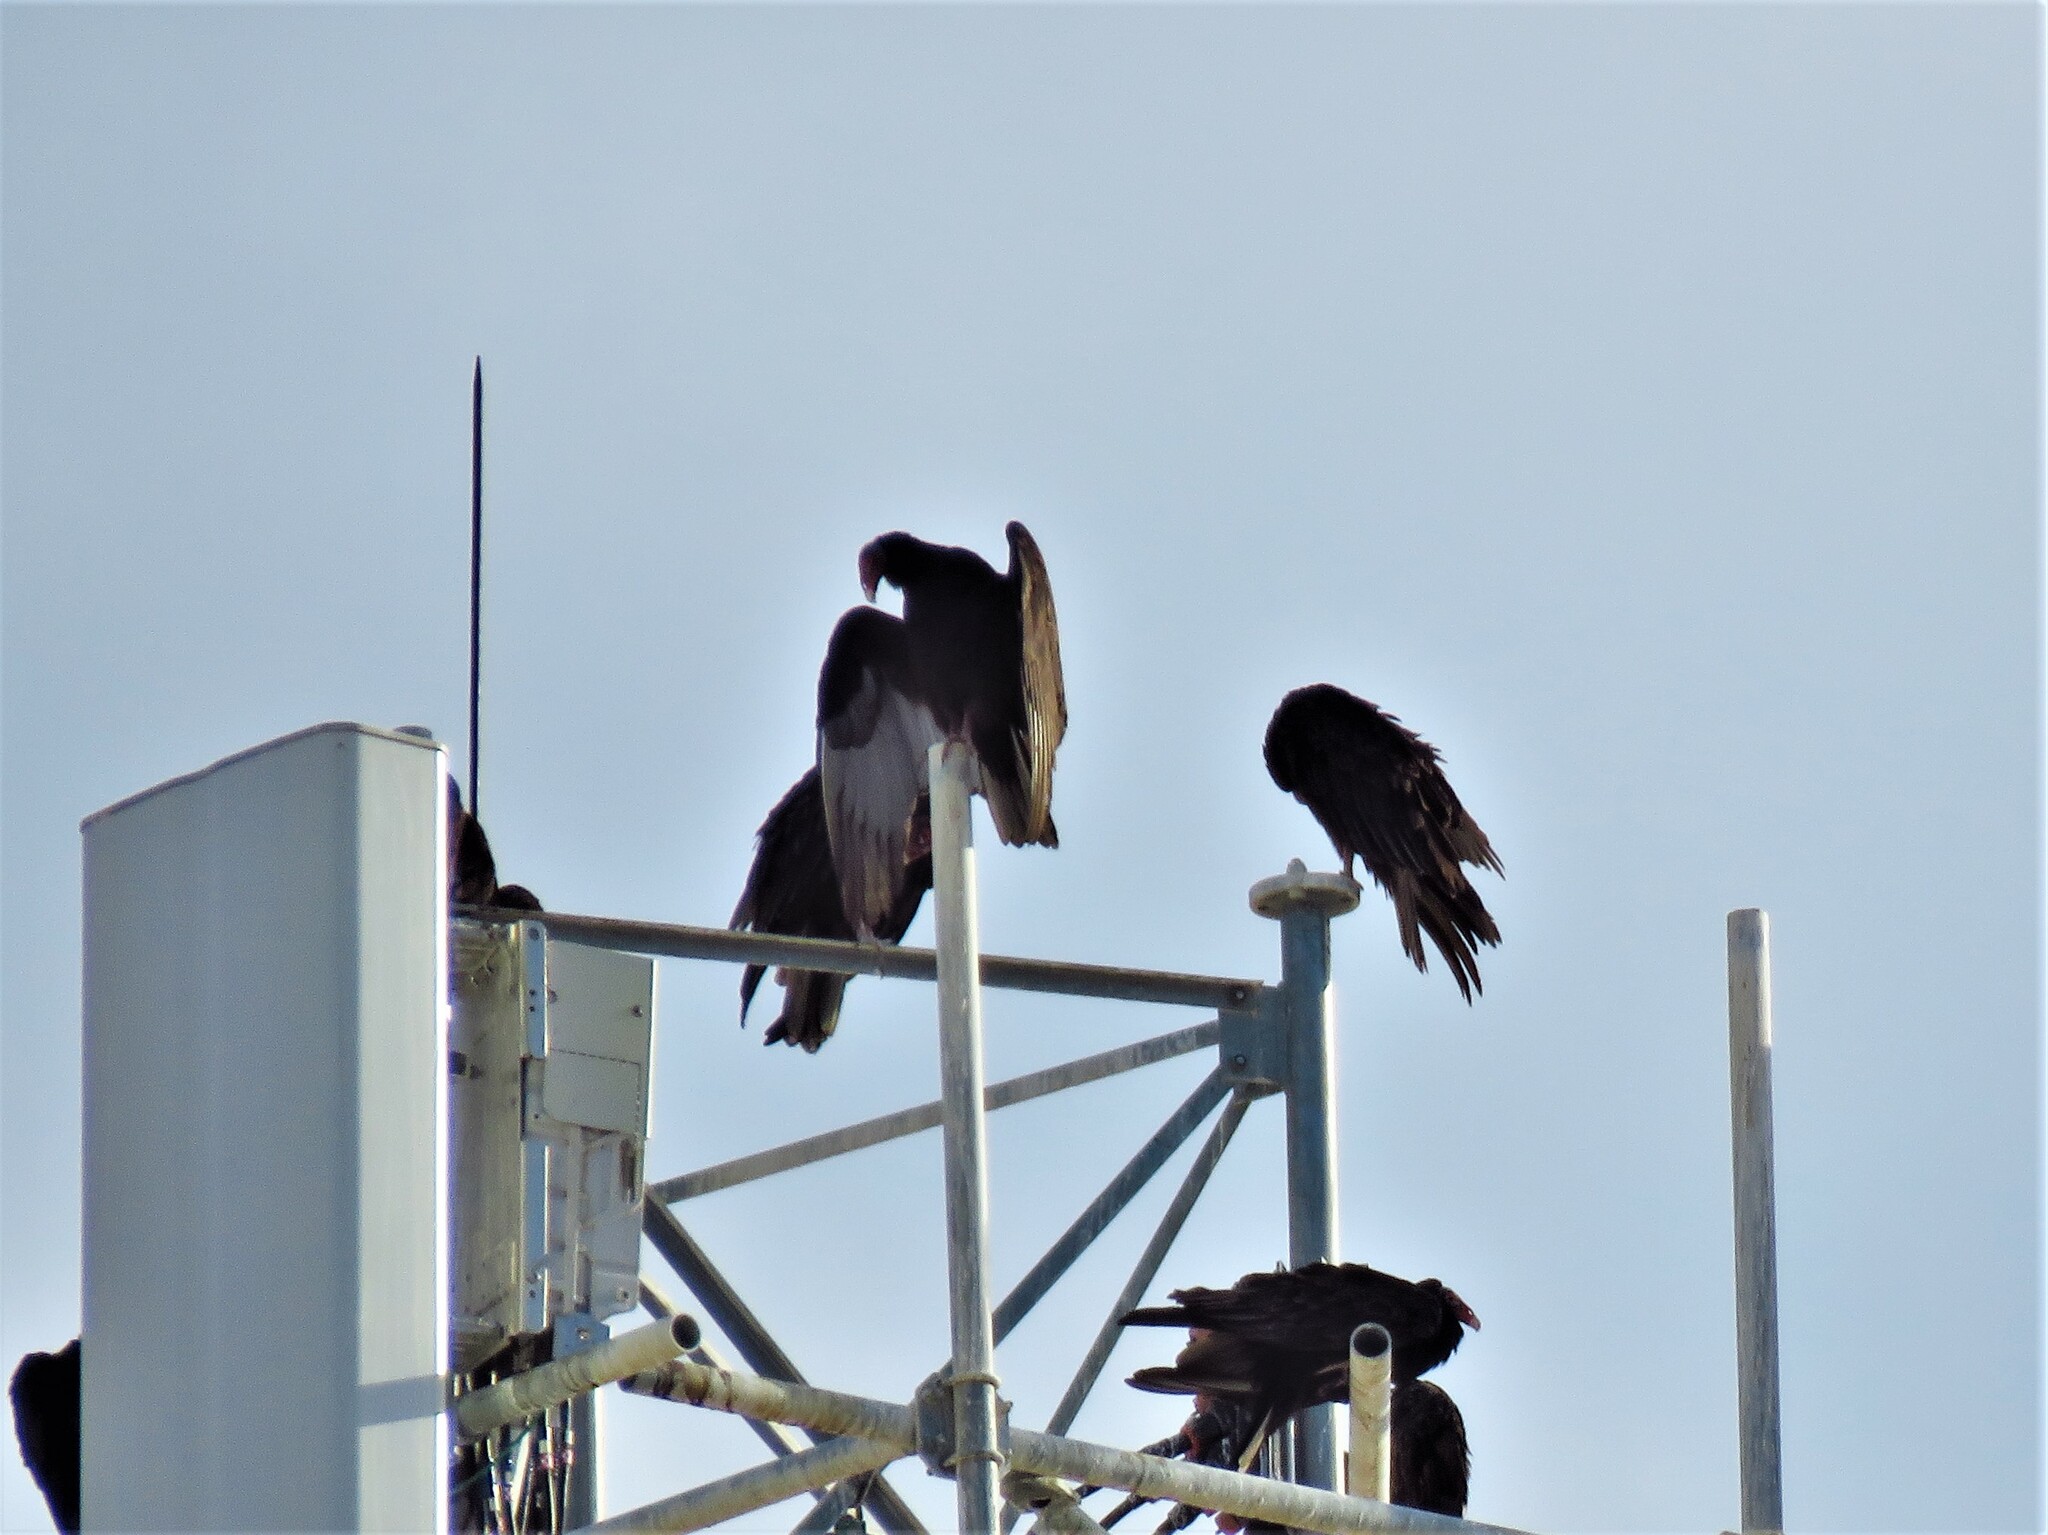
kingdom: Animalia
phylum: Chordata
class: Aves
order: Accipitriformes
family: Cathartidae
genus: Cathartes
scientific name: Cathartes aura
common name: Turkey vulture
